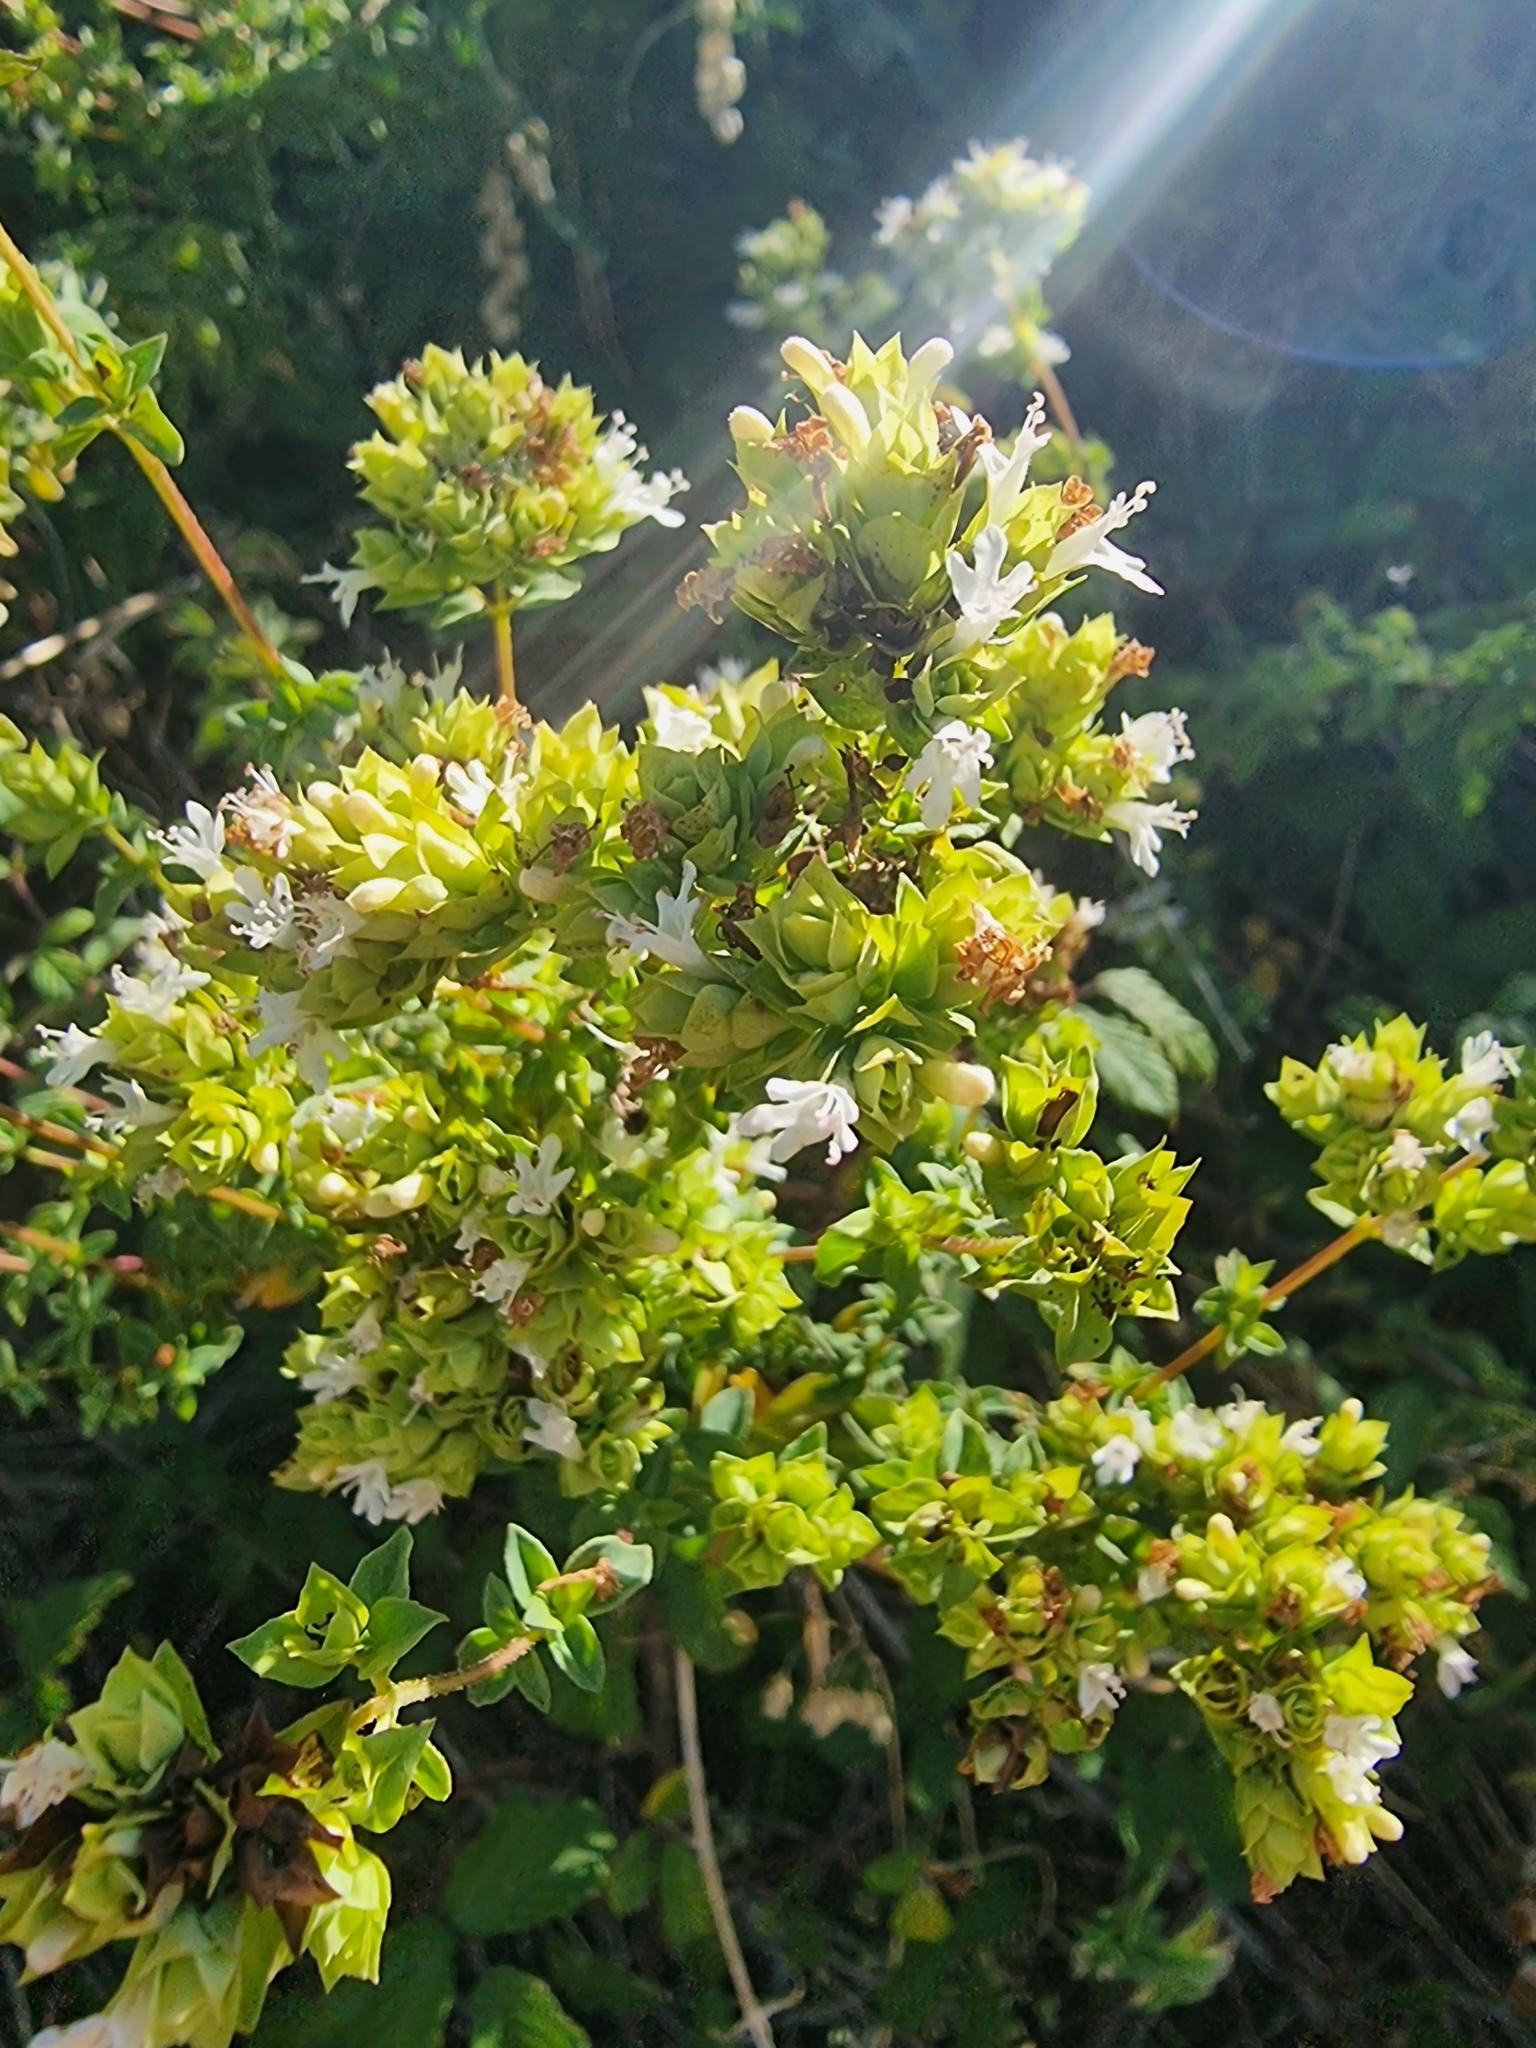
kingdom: Plantae
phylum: Tracheophyta
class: Magnoliopsida
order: Lamiales
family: Lamiaceae
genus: Origanum
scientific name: Origanum vulgare
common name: Wild marjoram
